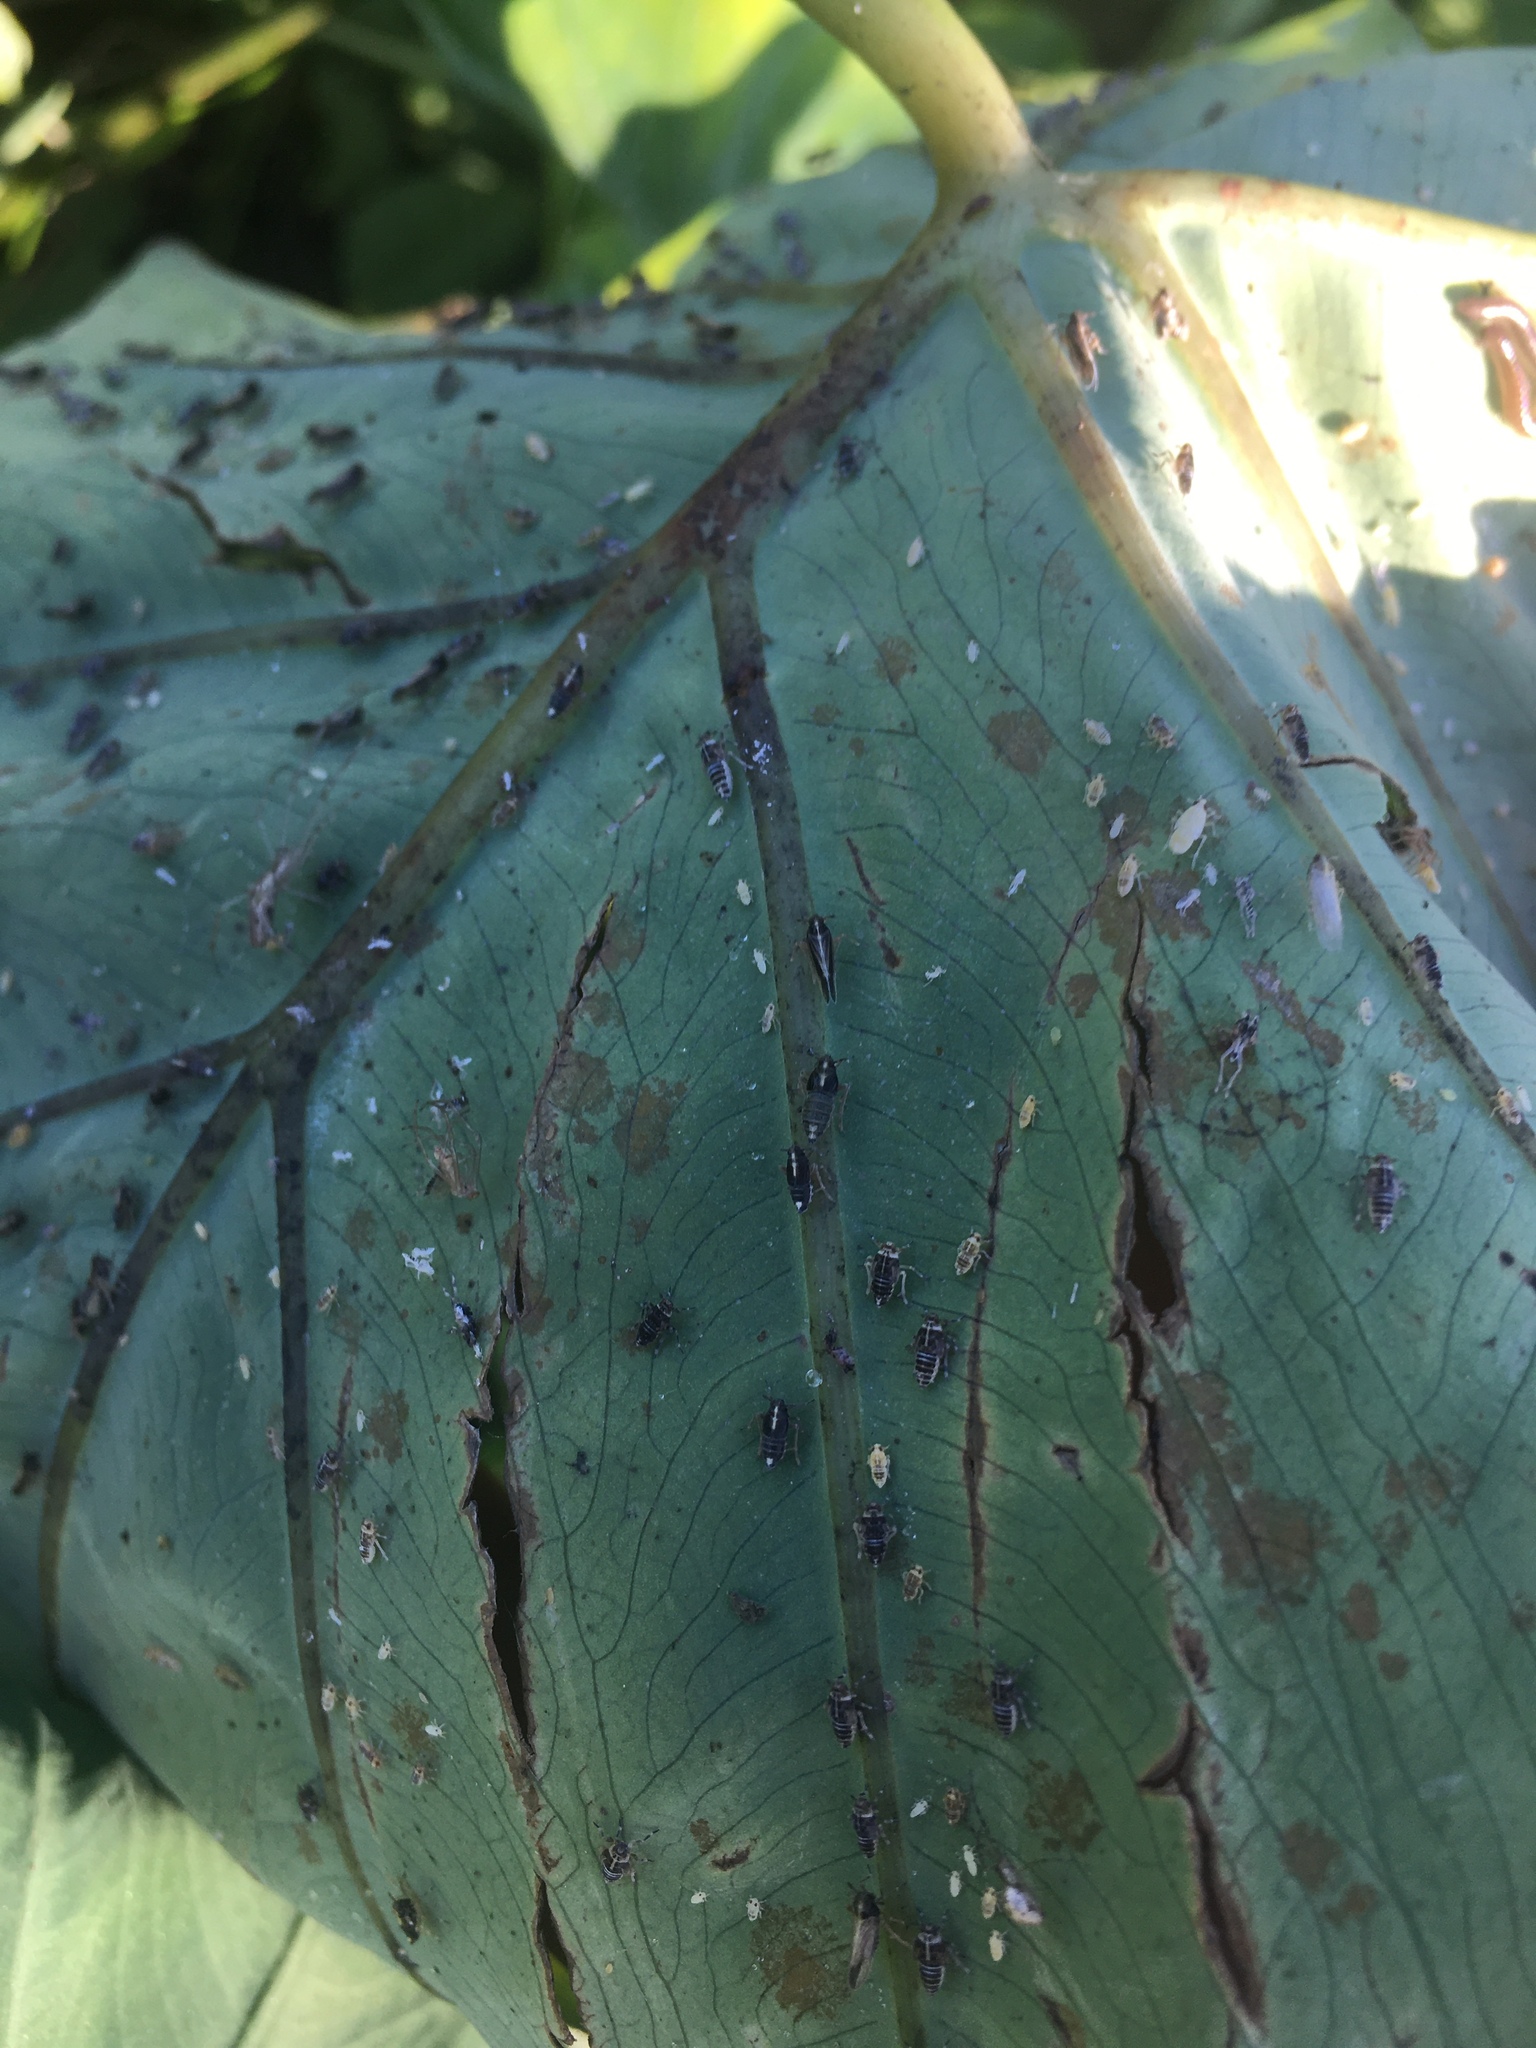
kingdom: Animalia
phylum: Arthropoda
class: Insecta
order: Hemiptera
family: Delphacidae
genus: Tarophagus
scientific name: Tarophagus colocasiae
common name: Taro planthopper
